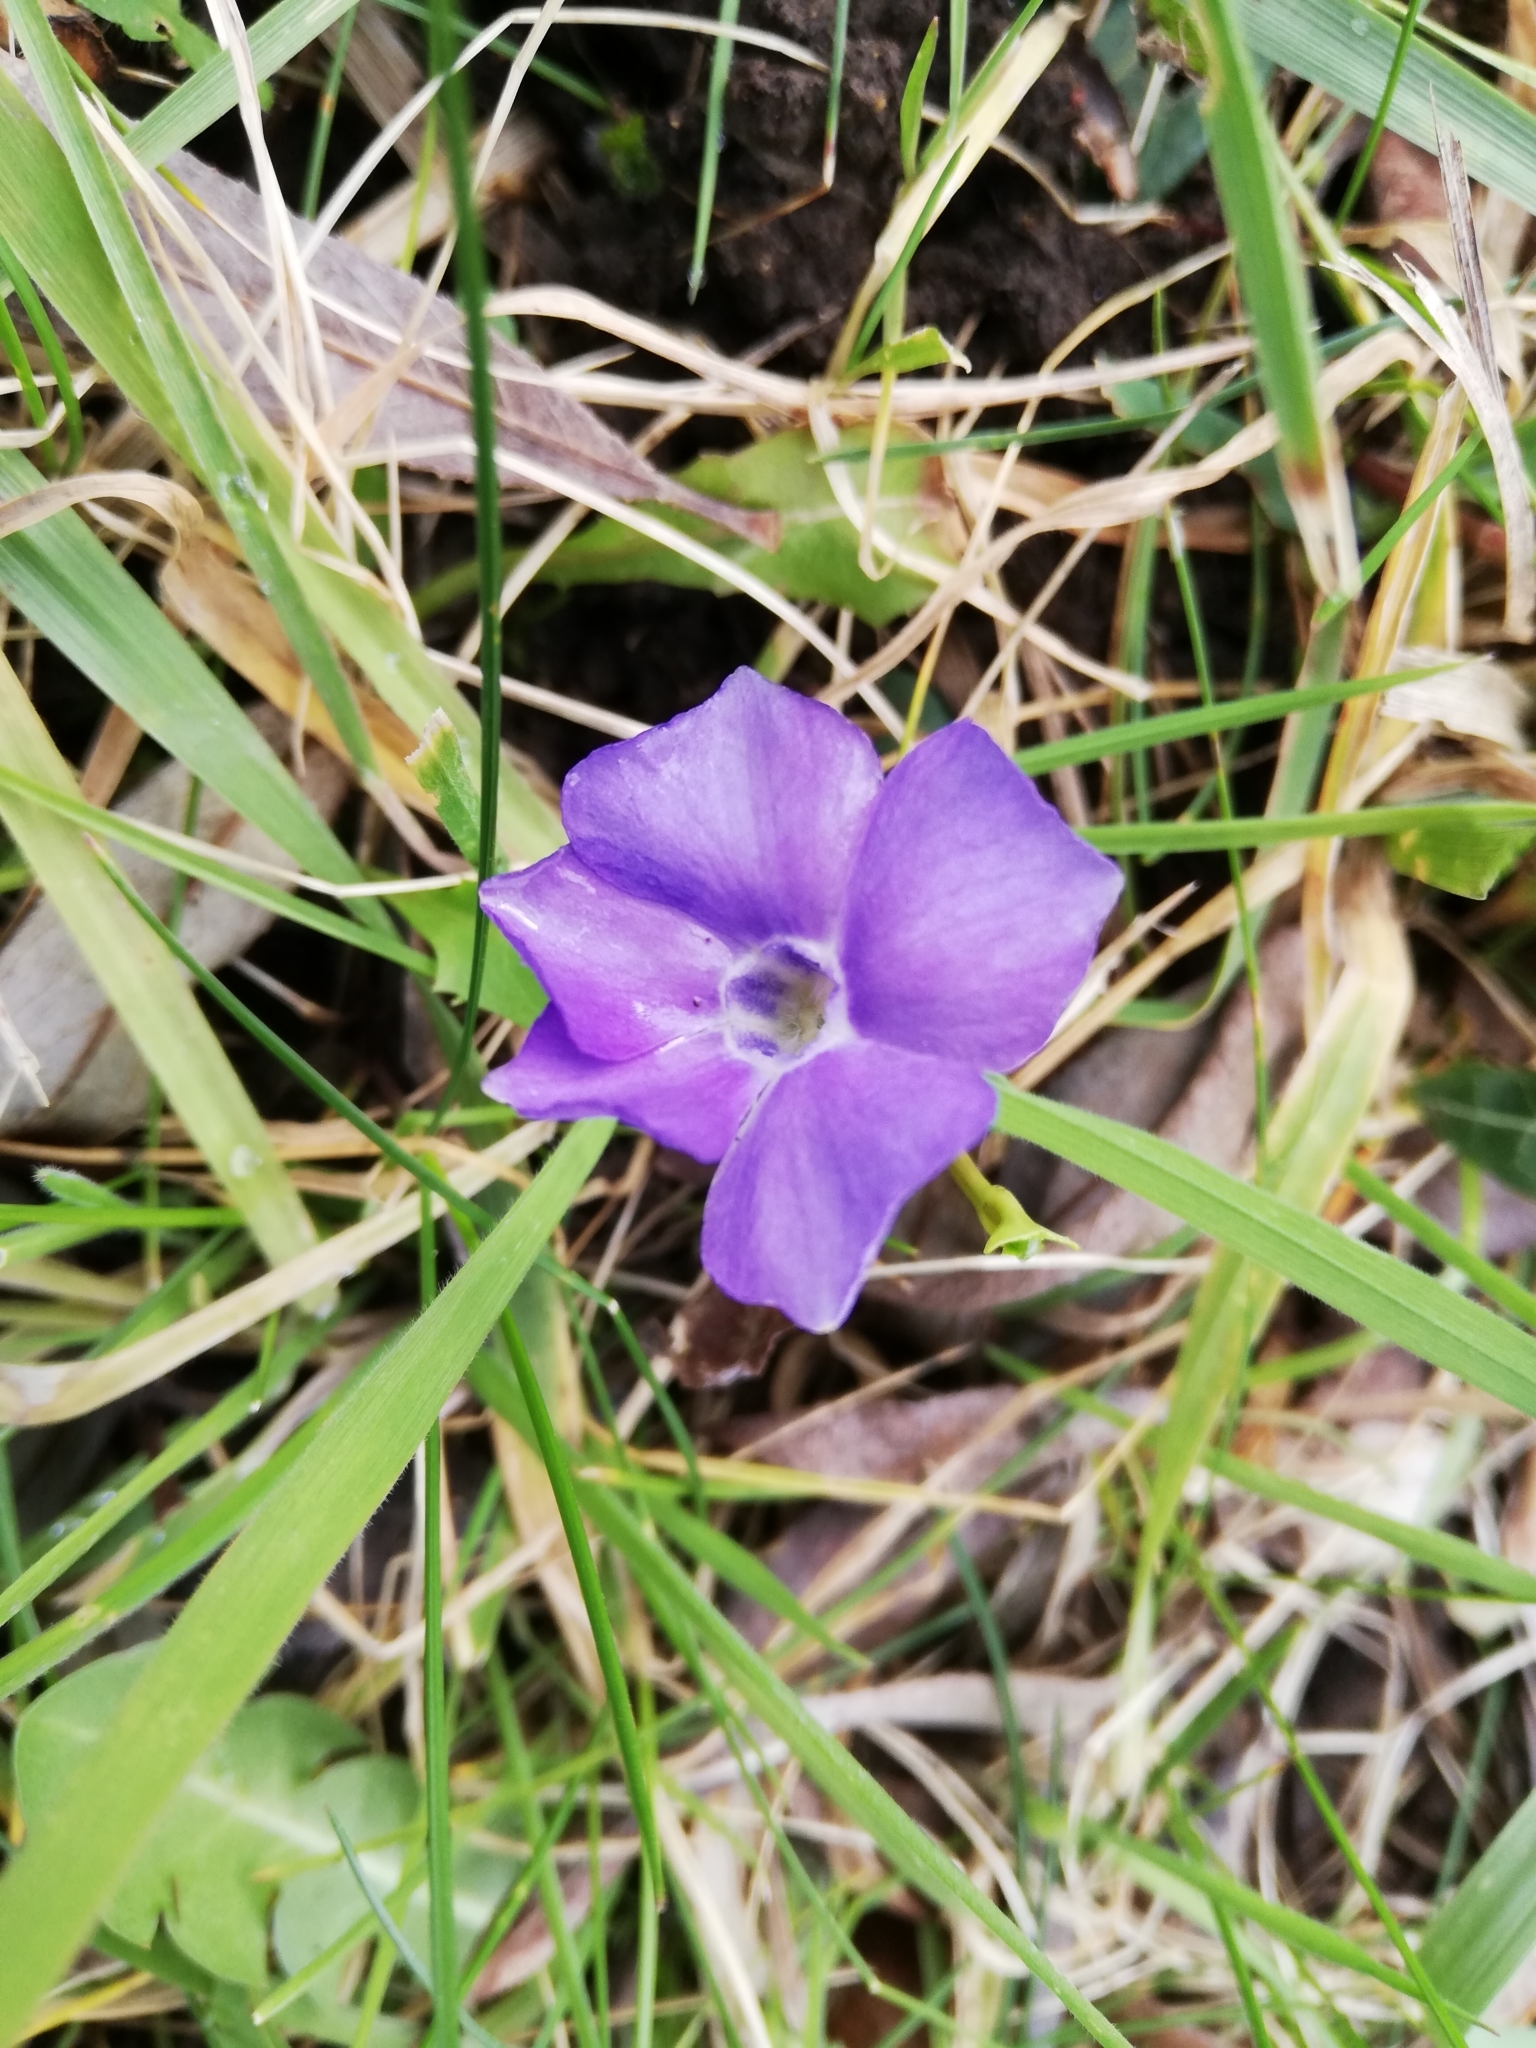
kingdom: Plantae
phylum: Tracheophyta
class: Magnoliopsida
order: Gentianales
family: Apocynaceae
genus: Vinca
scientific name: Vinca major
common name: Greater periwinkle
